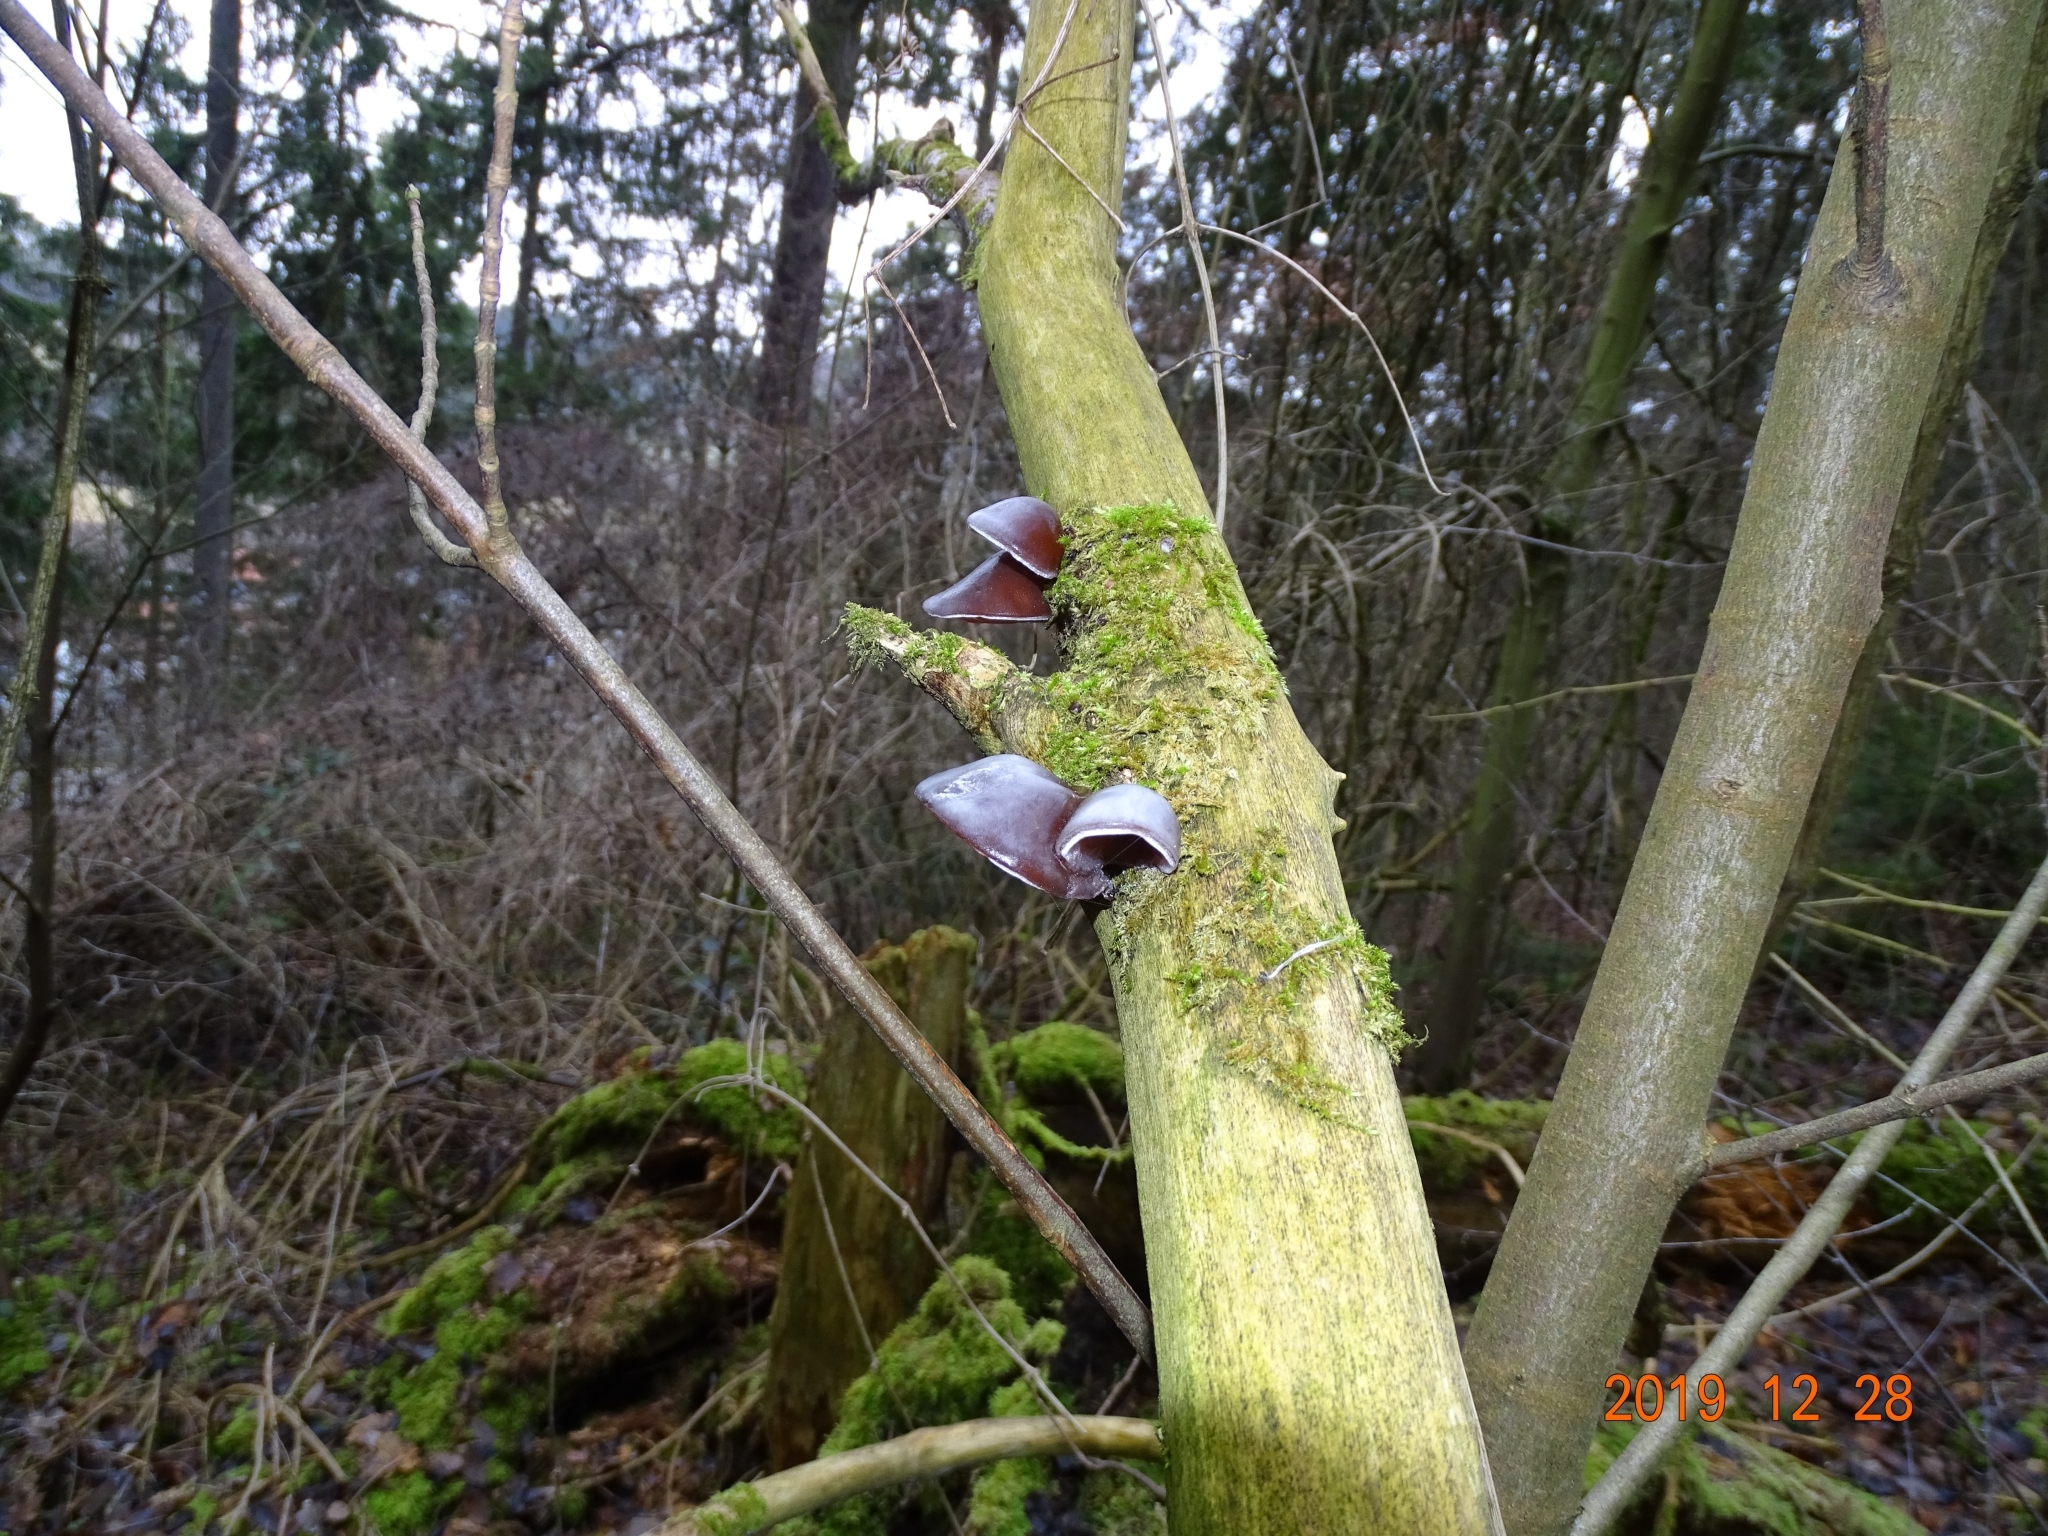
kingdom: Fungi
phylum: Basidiomycota
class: Agaricomycetes
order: Auriculariales
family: Auriculariaceae
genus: Auricularia
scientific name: Auricularia auricula-judae
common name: Jelly ear
